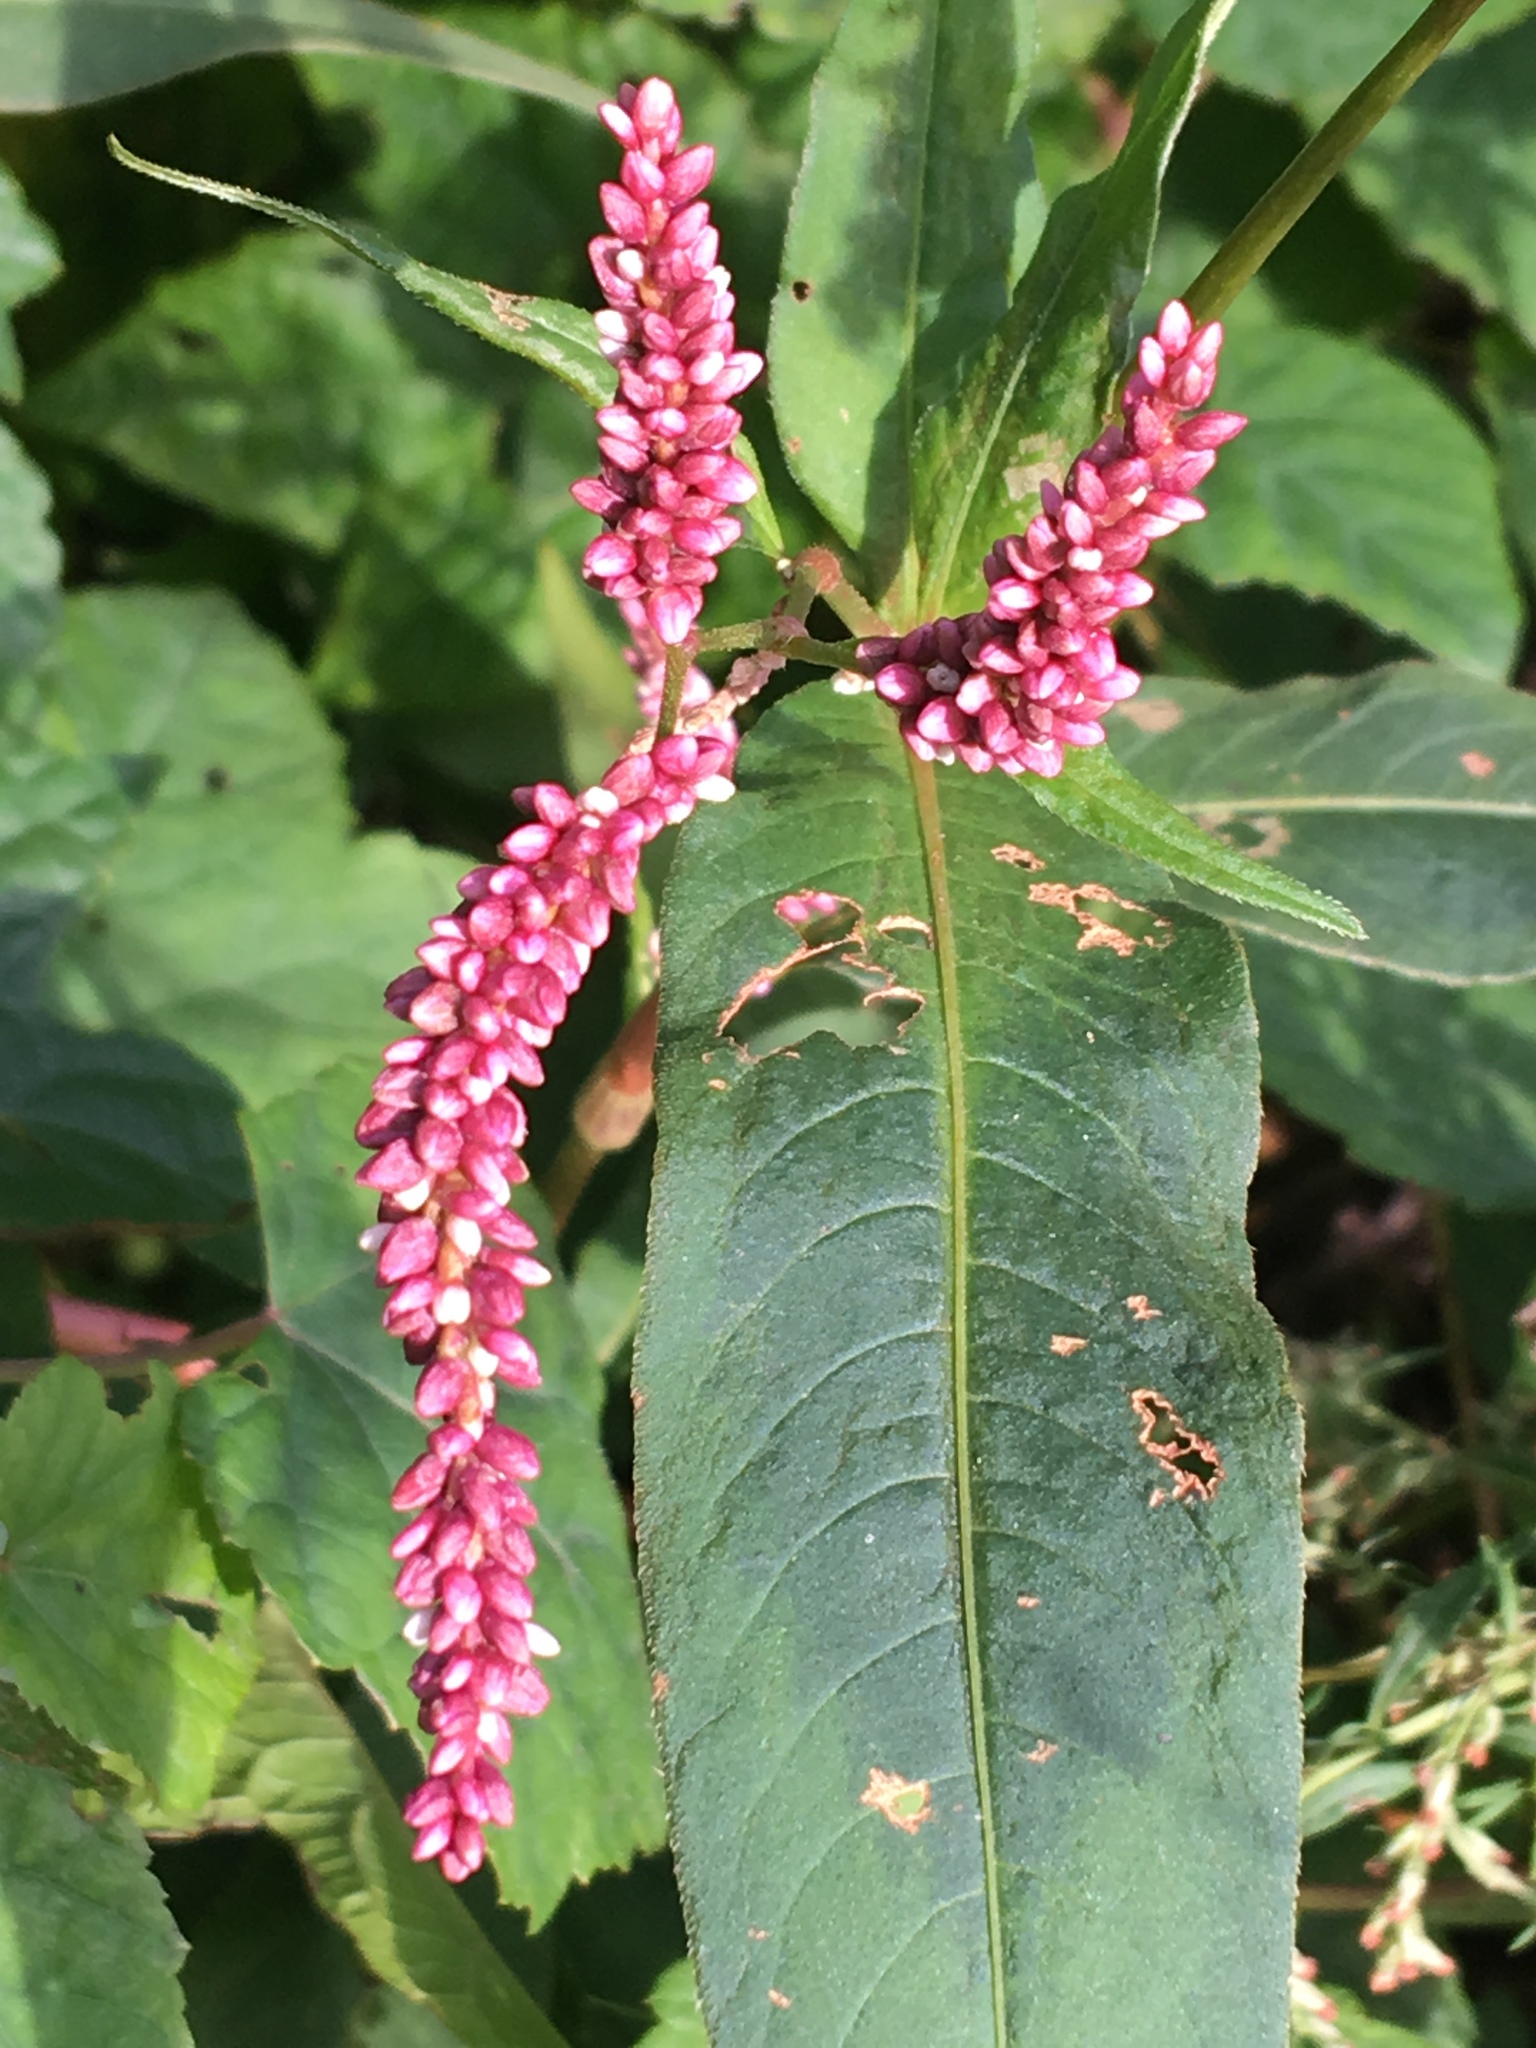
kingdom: Plantae
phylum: Tracheophyta
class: Magnoliopsida
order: Caryophyllales
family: Polygonaceae
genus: Persicaria
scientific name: Persicaria extremiorientalis
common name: Far-eastern smartweed
